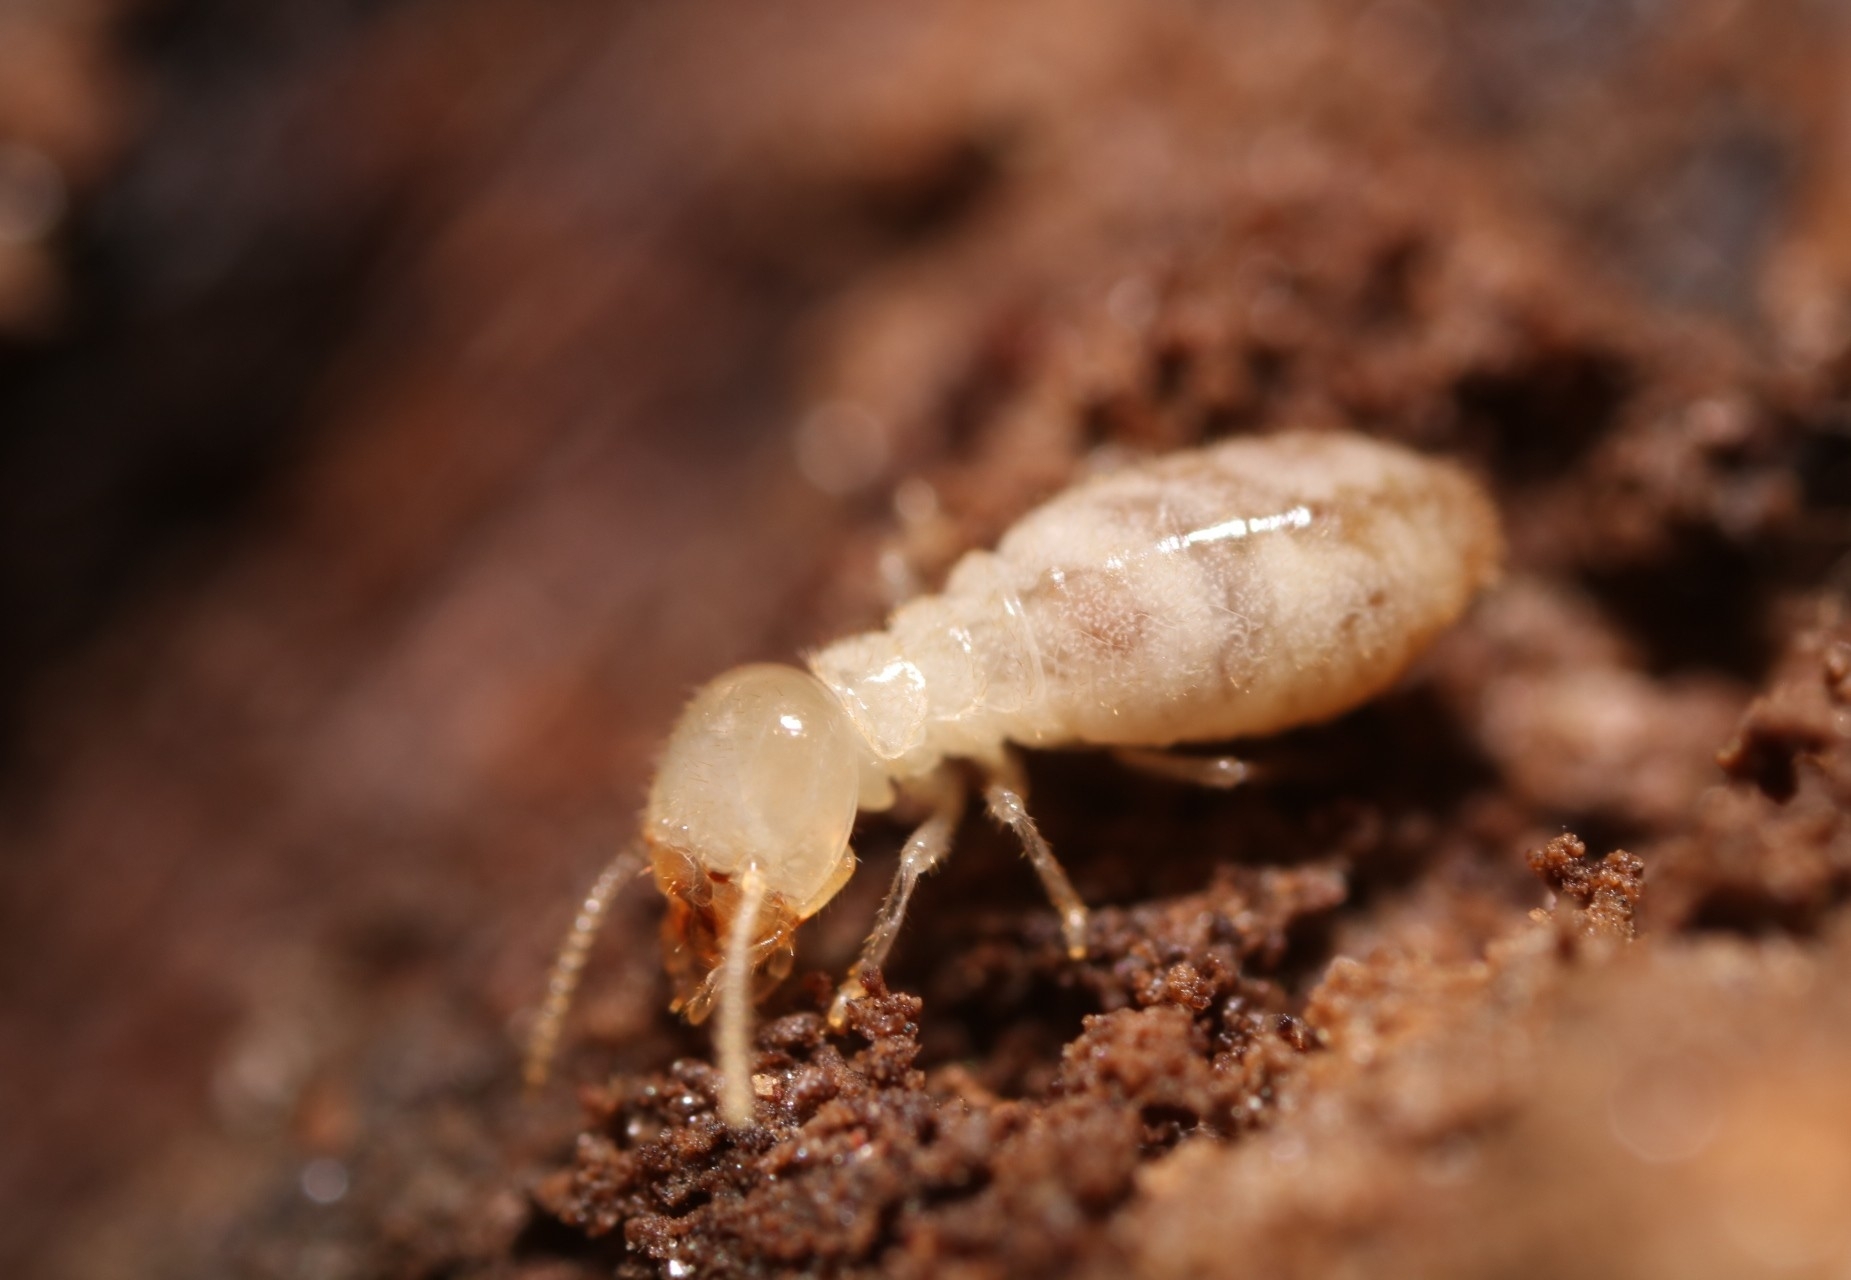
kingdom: Animalia
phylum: Arthropoda
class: Insecta
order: Blattodea
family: Rhinotermitidae
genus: Reticulitermes
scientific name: Reticulitermes flavipes
